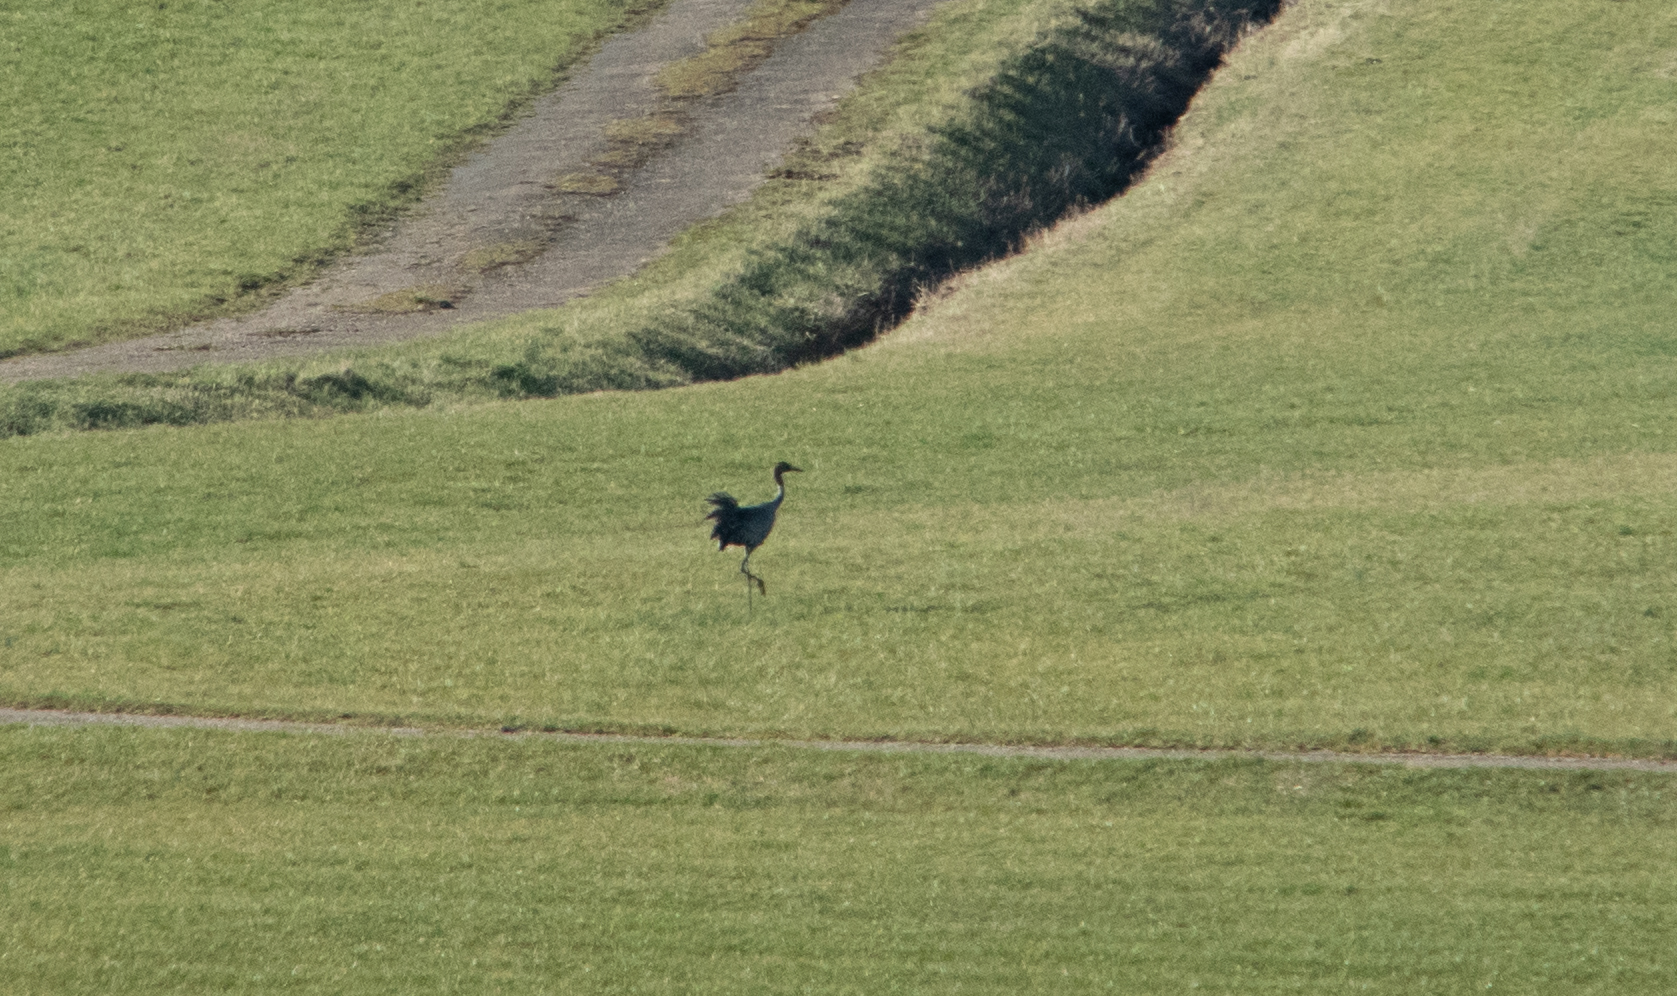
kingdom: Animalia
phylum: Chordata
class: Aves
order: Gruiformes
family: Gruidae
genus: Grus
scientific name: Grus grus
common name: Common crane
